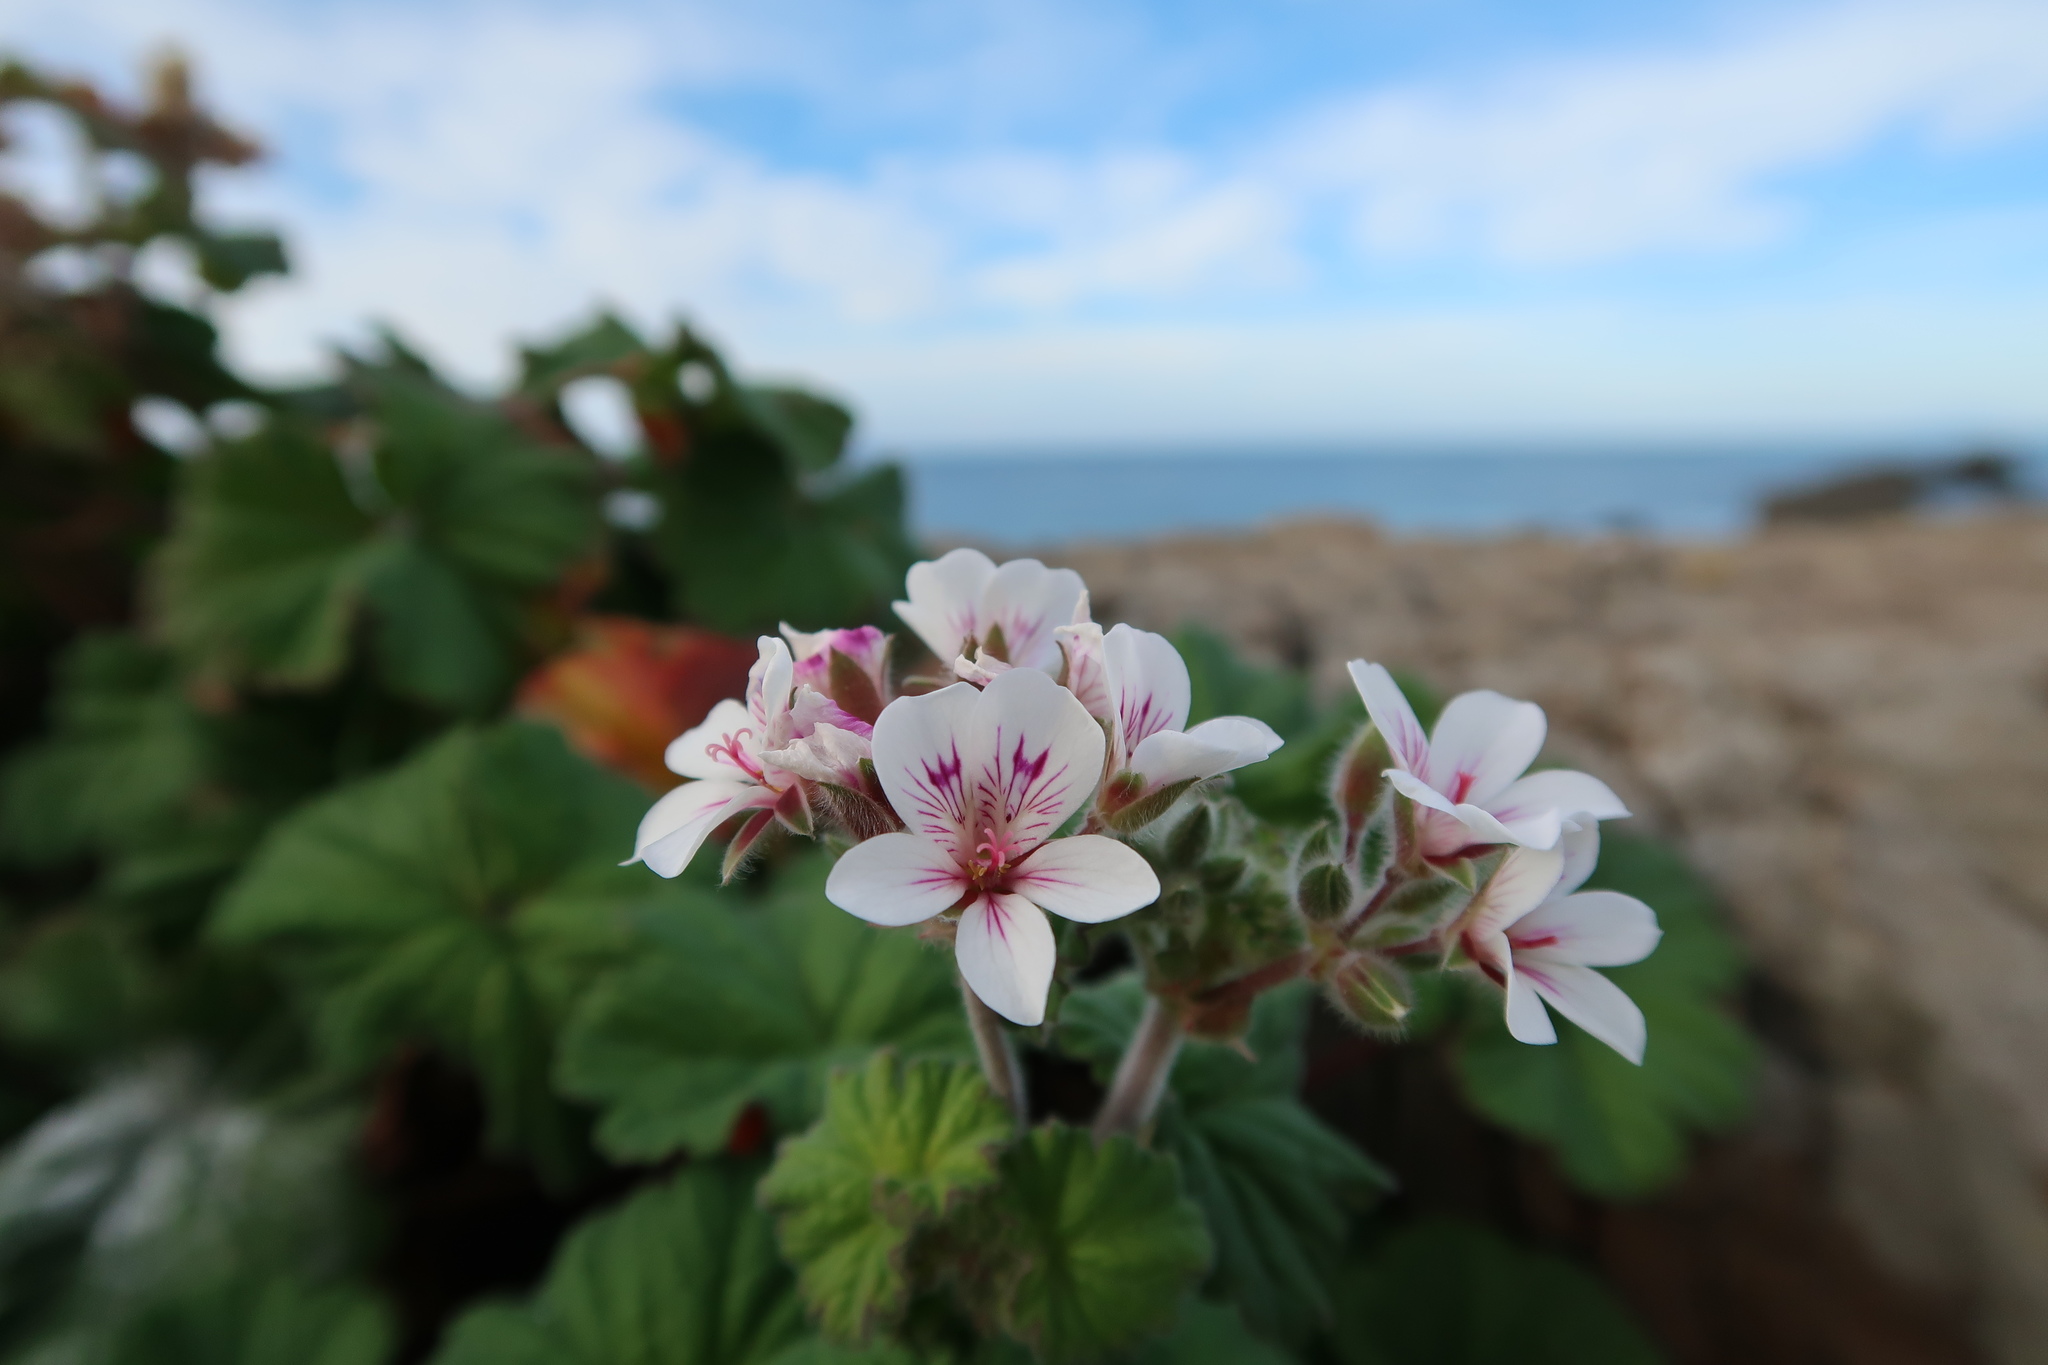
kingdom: Plantae
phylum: Tracheophyta
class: Magnoliopsida
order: Geraniales
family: Geraniaceae
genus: Pelargonium
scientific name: Pelargonium australe
